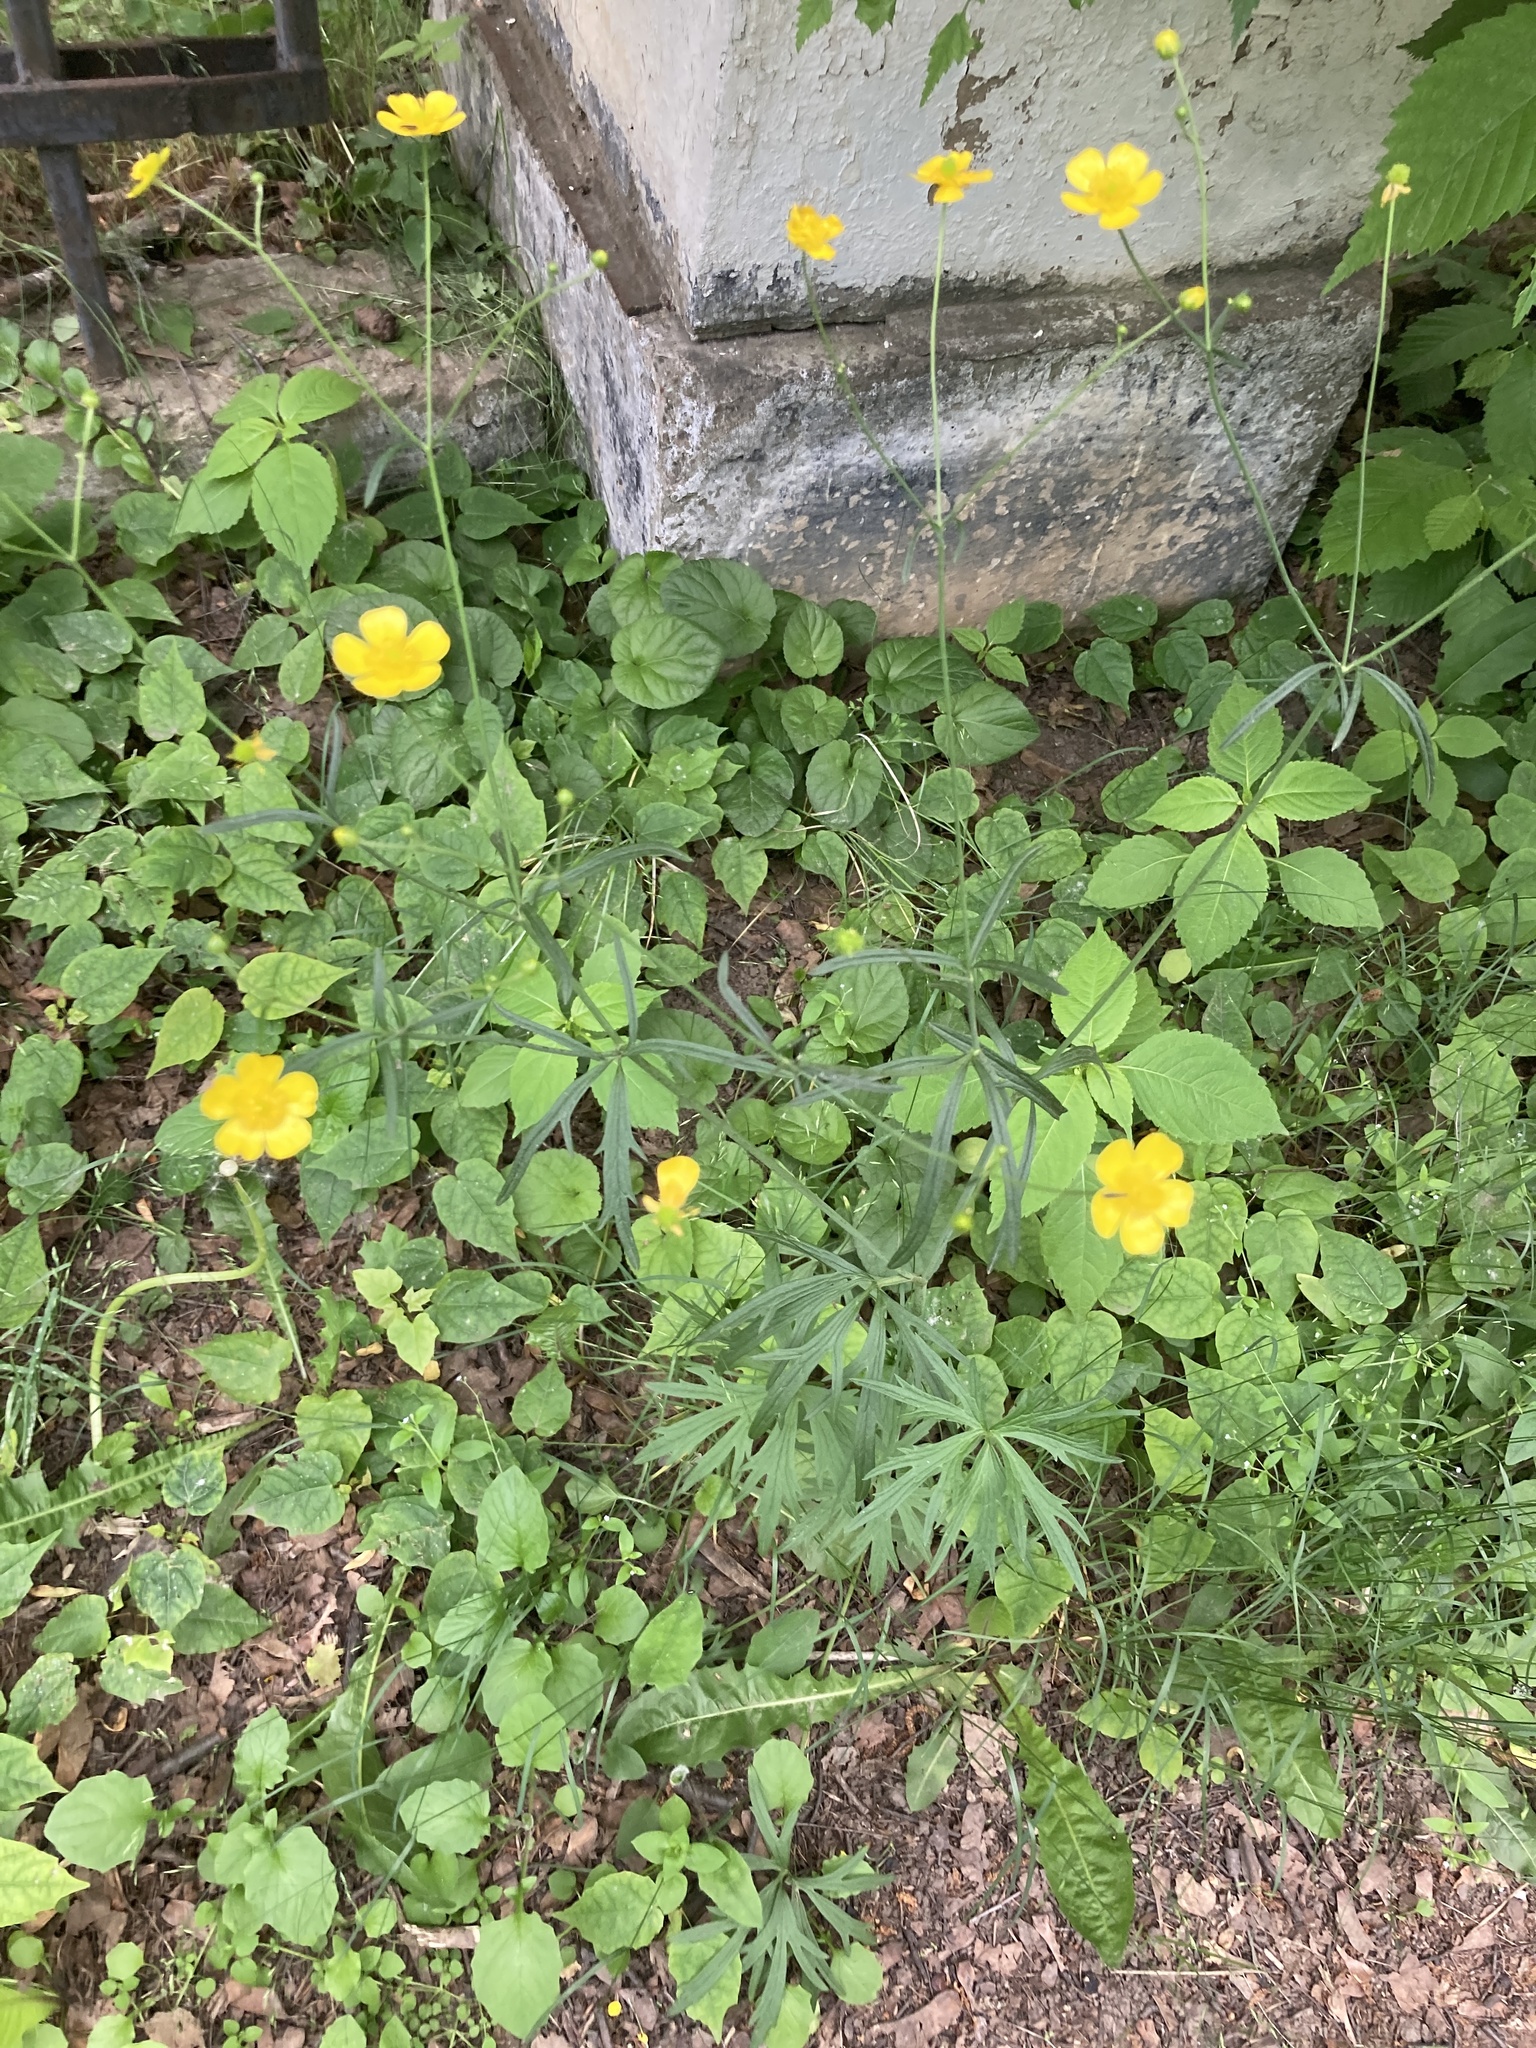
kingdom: Plantae
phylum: Tracheophyta
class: Magnoliopsida
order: Ranunculales
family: Ranunculaceae
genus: Ranunculus
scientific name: Ranunculus acris
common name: Meadow buttercup
